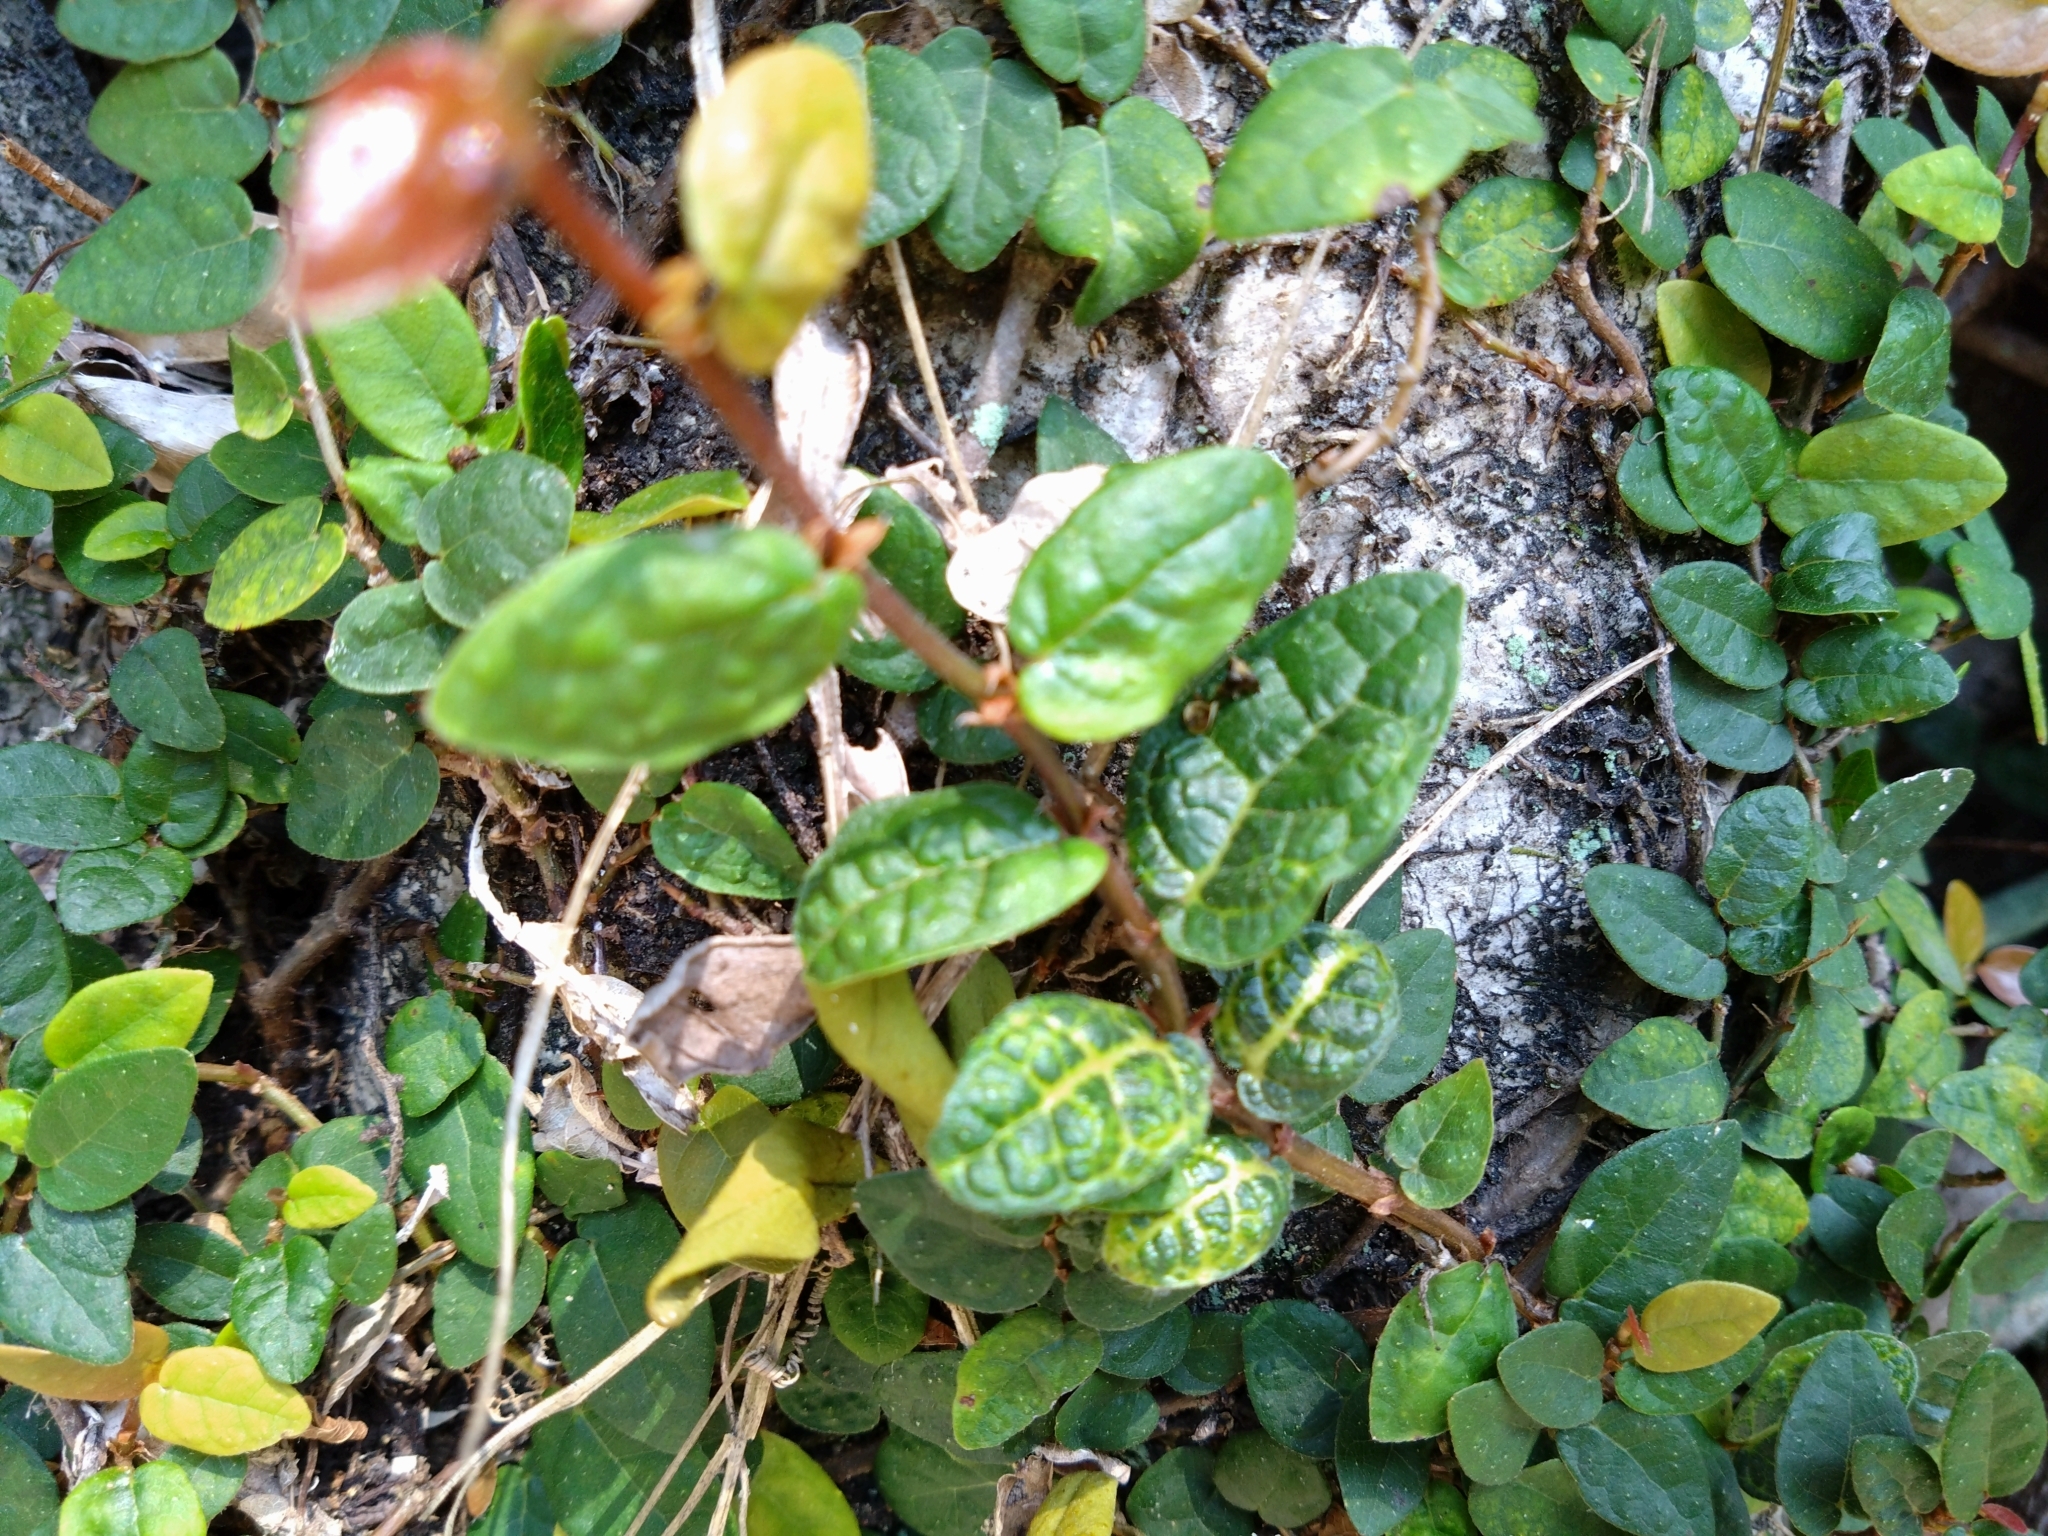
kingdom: Plantae
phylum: Tracheophyta
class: Magnoliopsida
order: Rosales
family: Moraceae
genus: Ficus
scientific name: Ficus pumila
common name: Climbingfig
